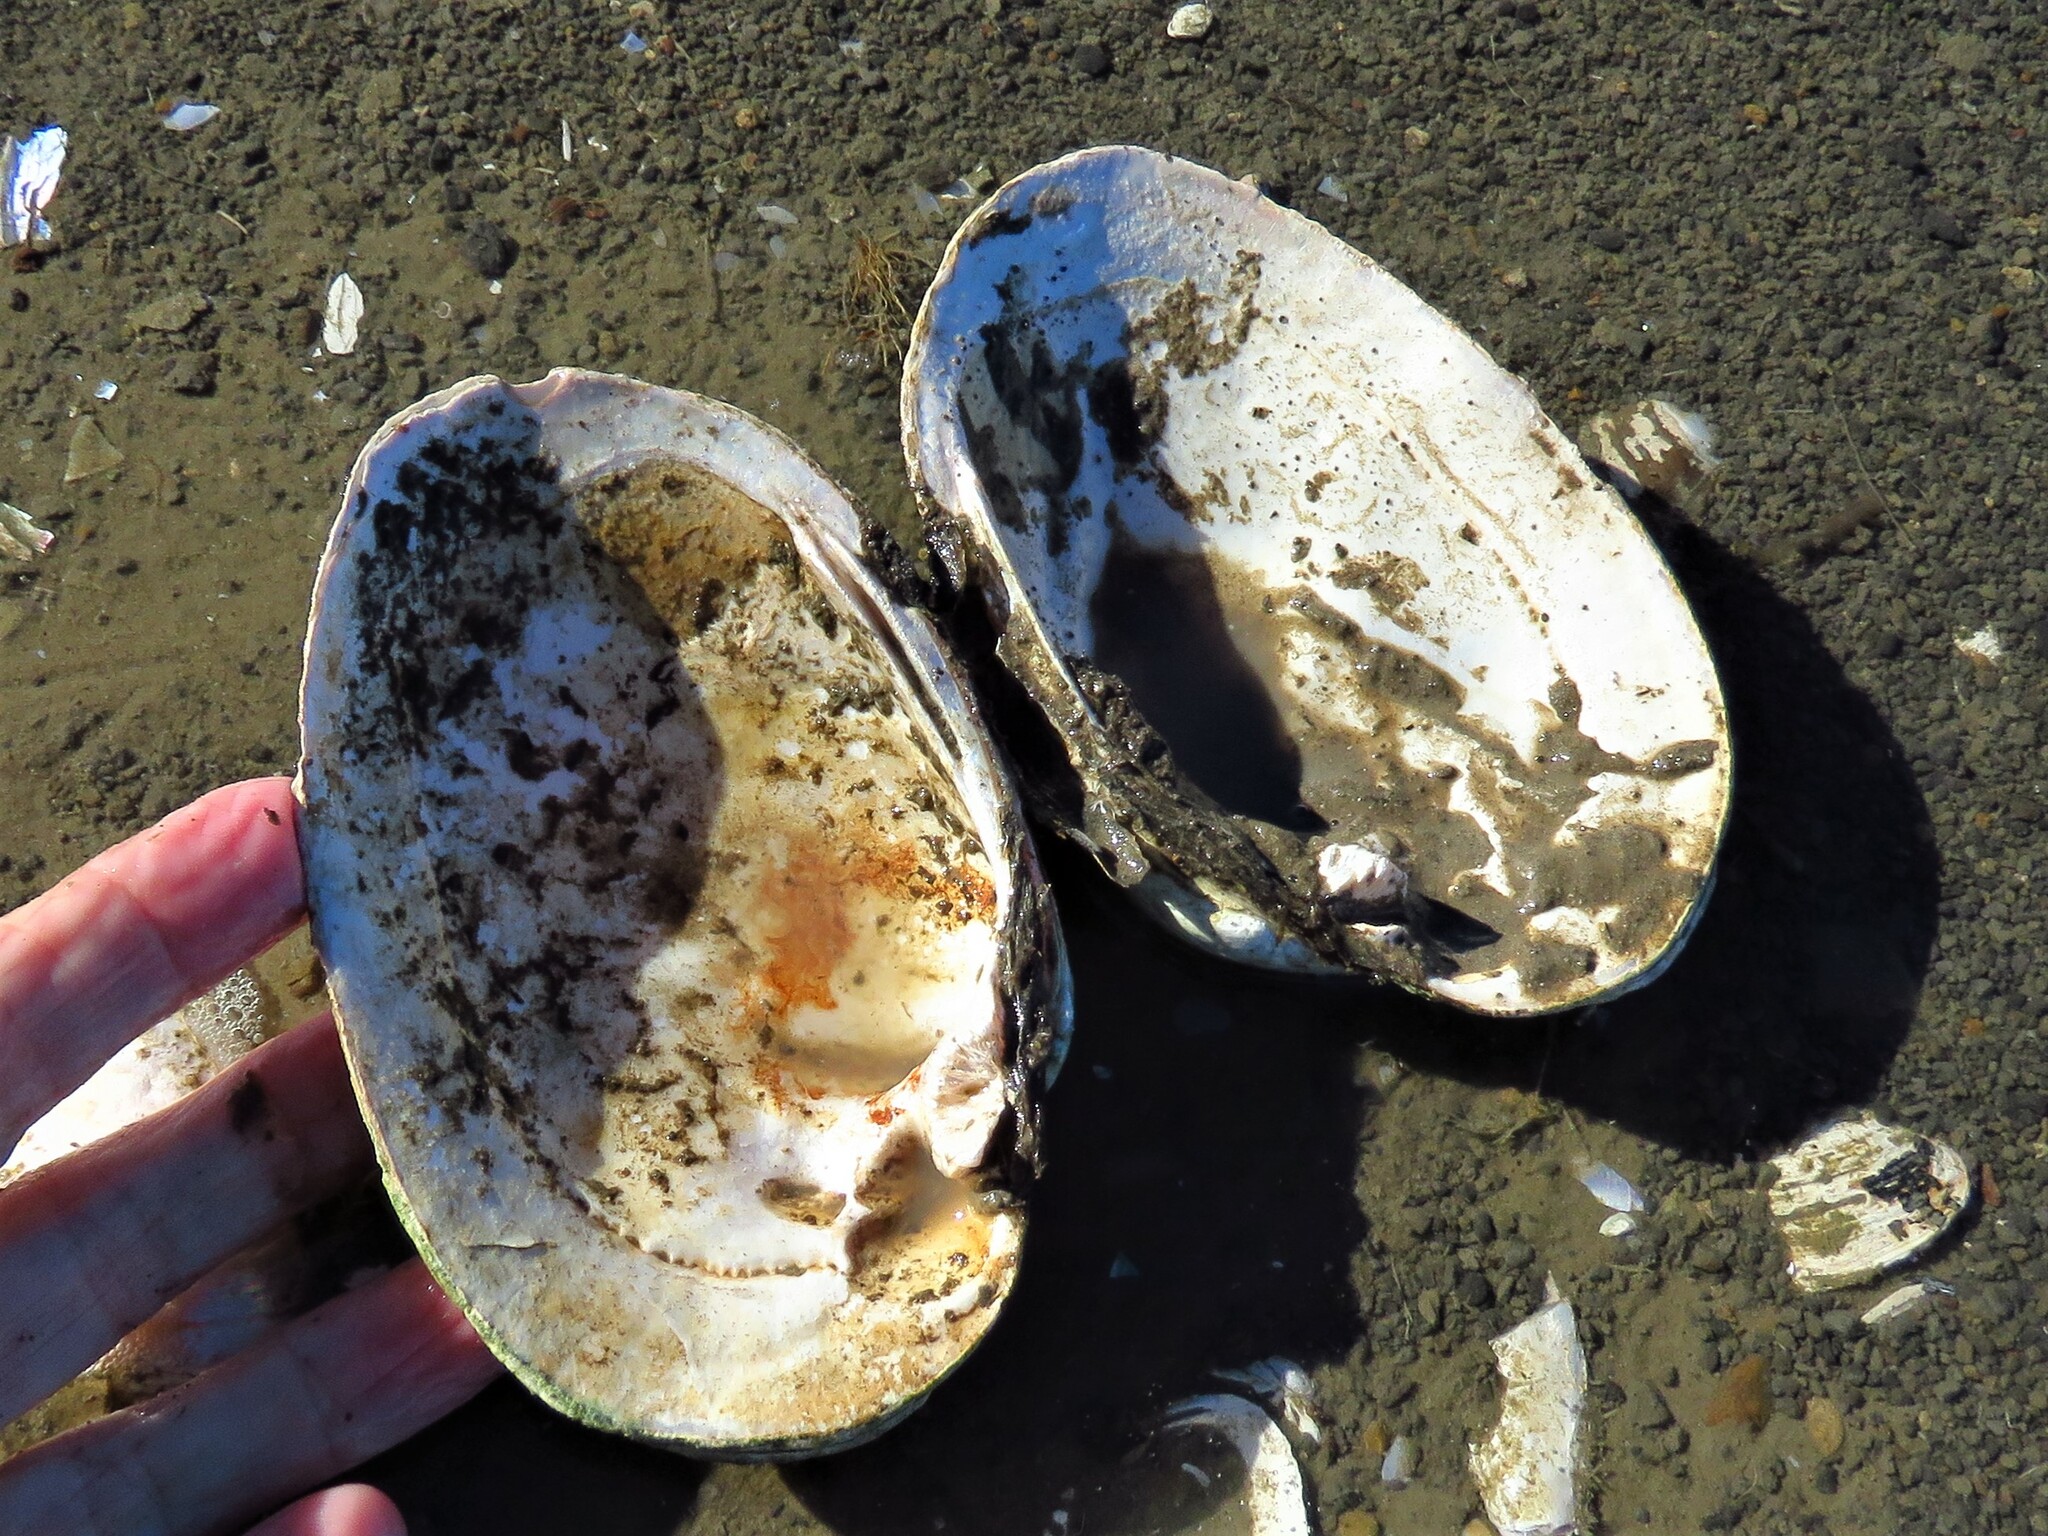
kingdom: Animalia
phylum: Mollusca
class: Bivalvia
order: Unionida
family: Unionidae
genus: Cyrtonaias
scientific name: Cyrtonaias tampicoensis
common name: Tampico pearlymussel
